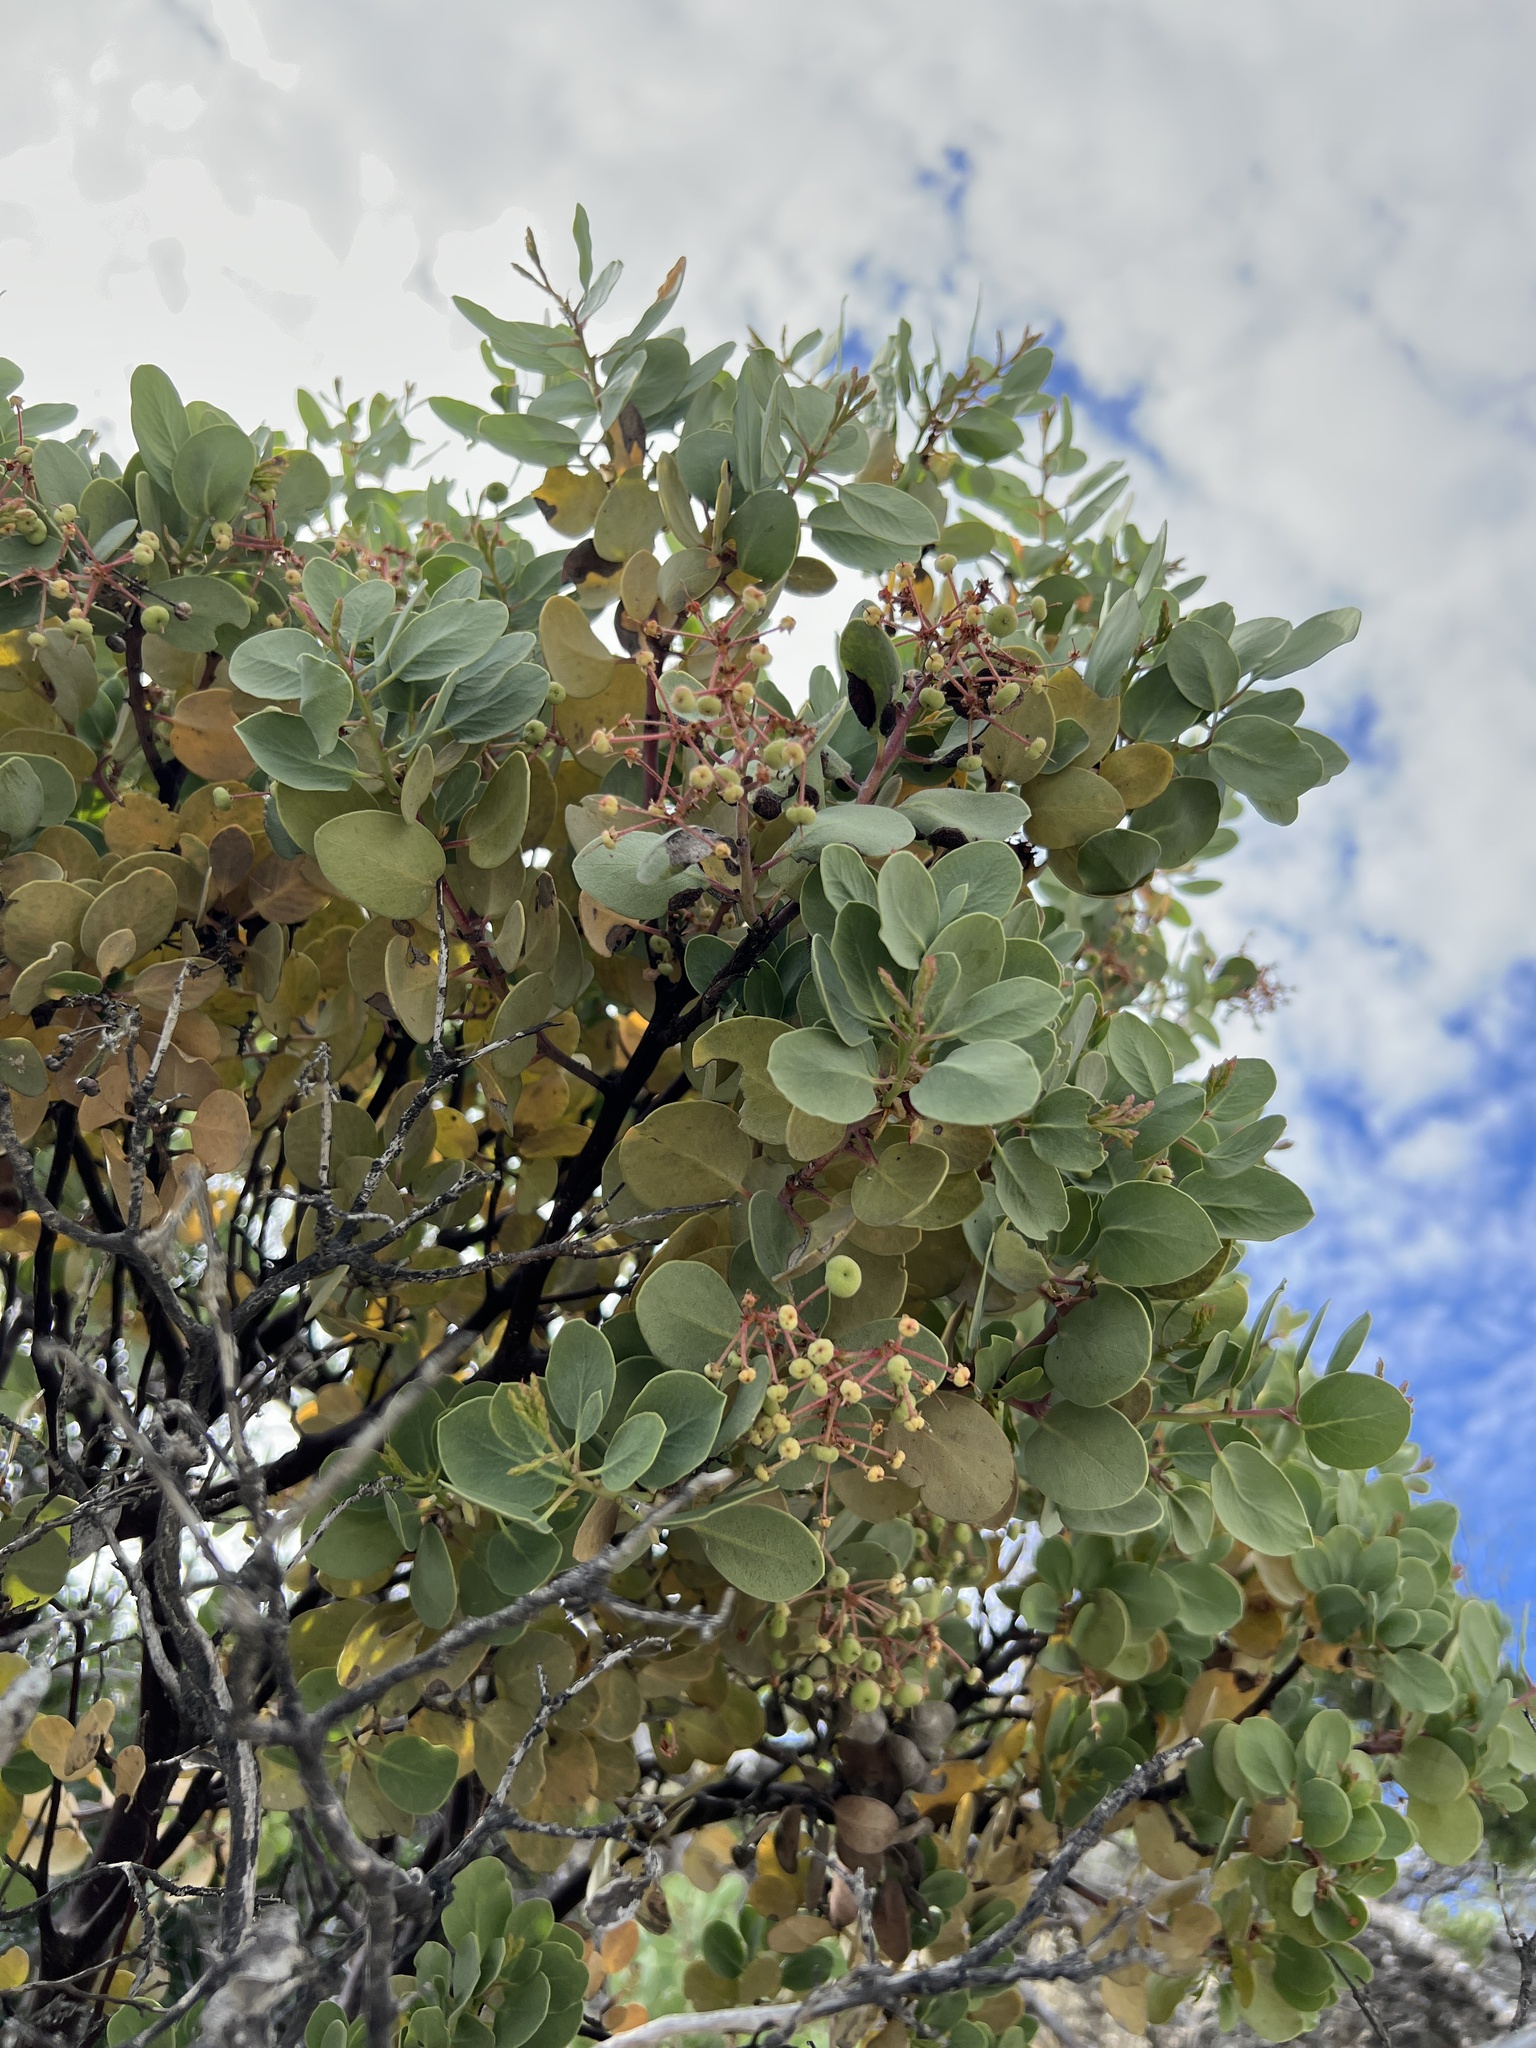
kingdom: Plantae
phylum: Tracheophyta
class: Magnoliopsida
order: Ericales
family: Ericaceae
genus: Arctostaphylos
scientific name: Arctostaphylos viscida
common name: White-leaf manzanita
